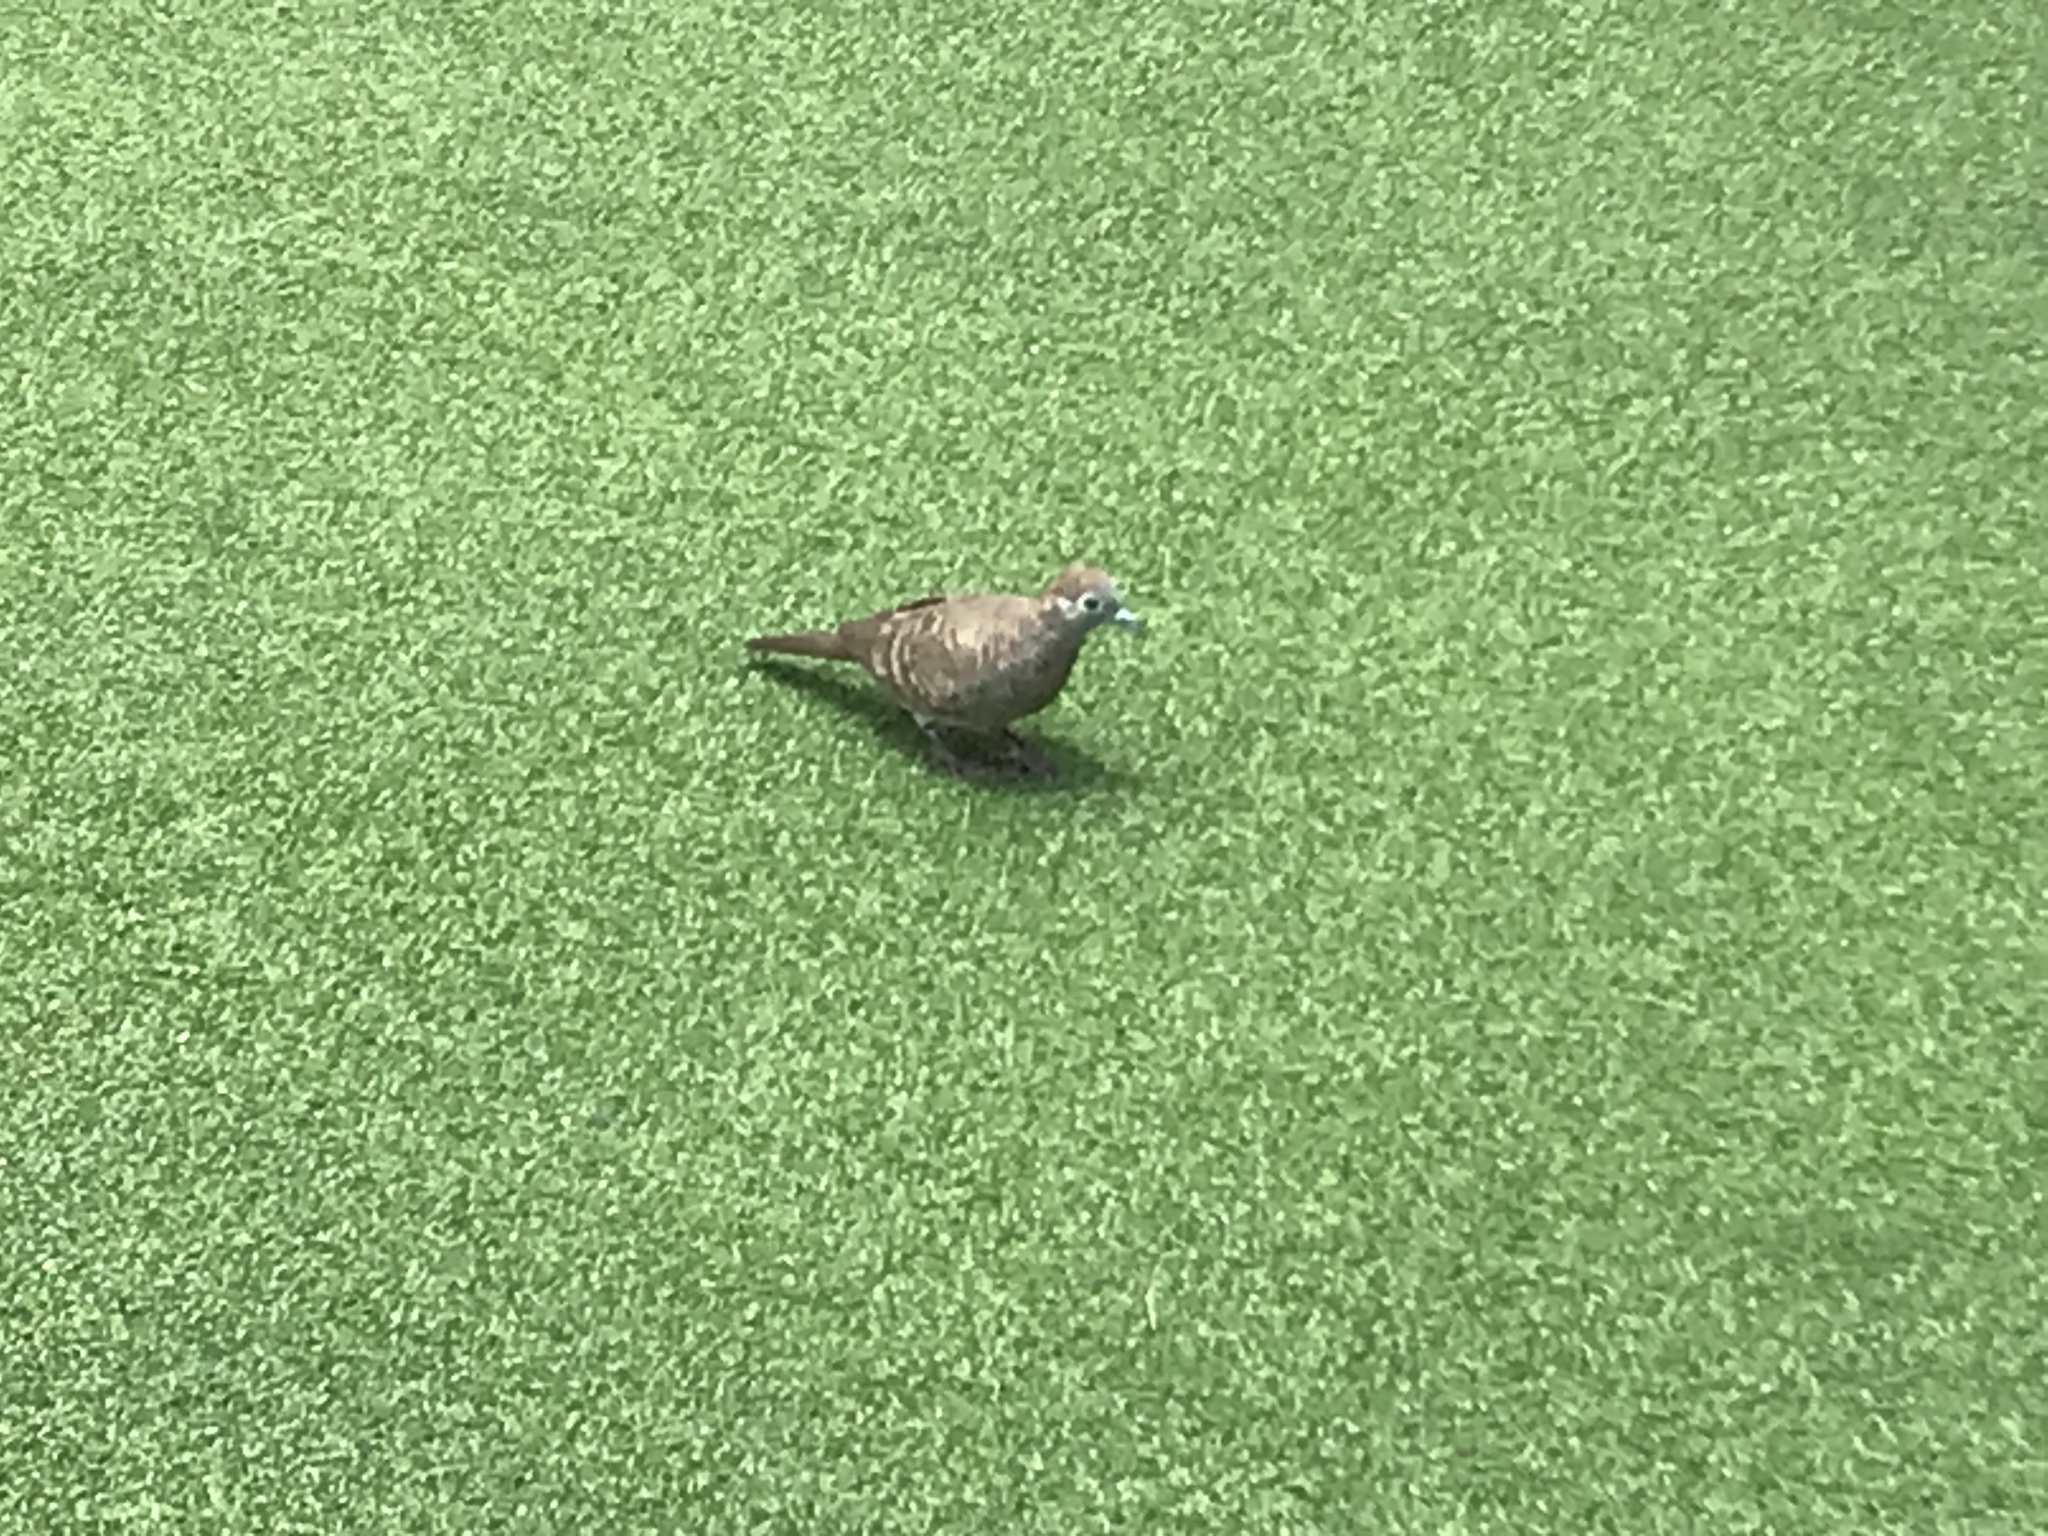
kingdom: Animalia
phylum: Chordata
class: Aves
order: Columbiformes
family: Columbidae
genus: Geopelia
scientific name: Geopelia striata
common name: Zebra dove
